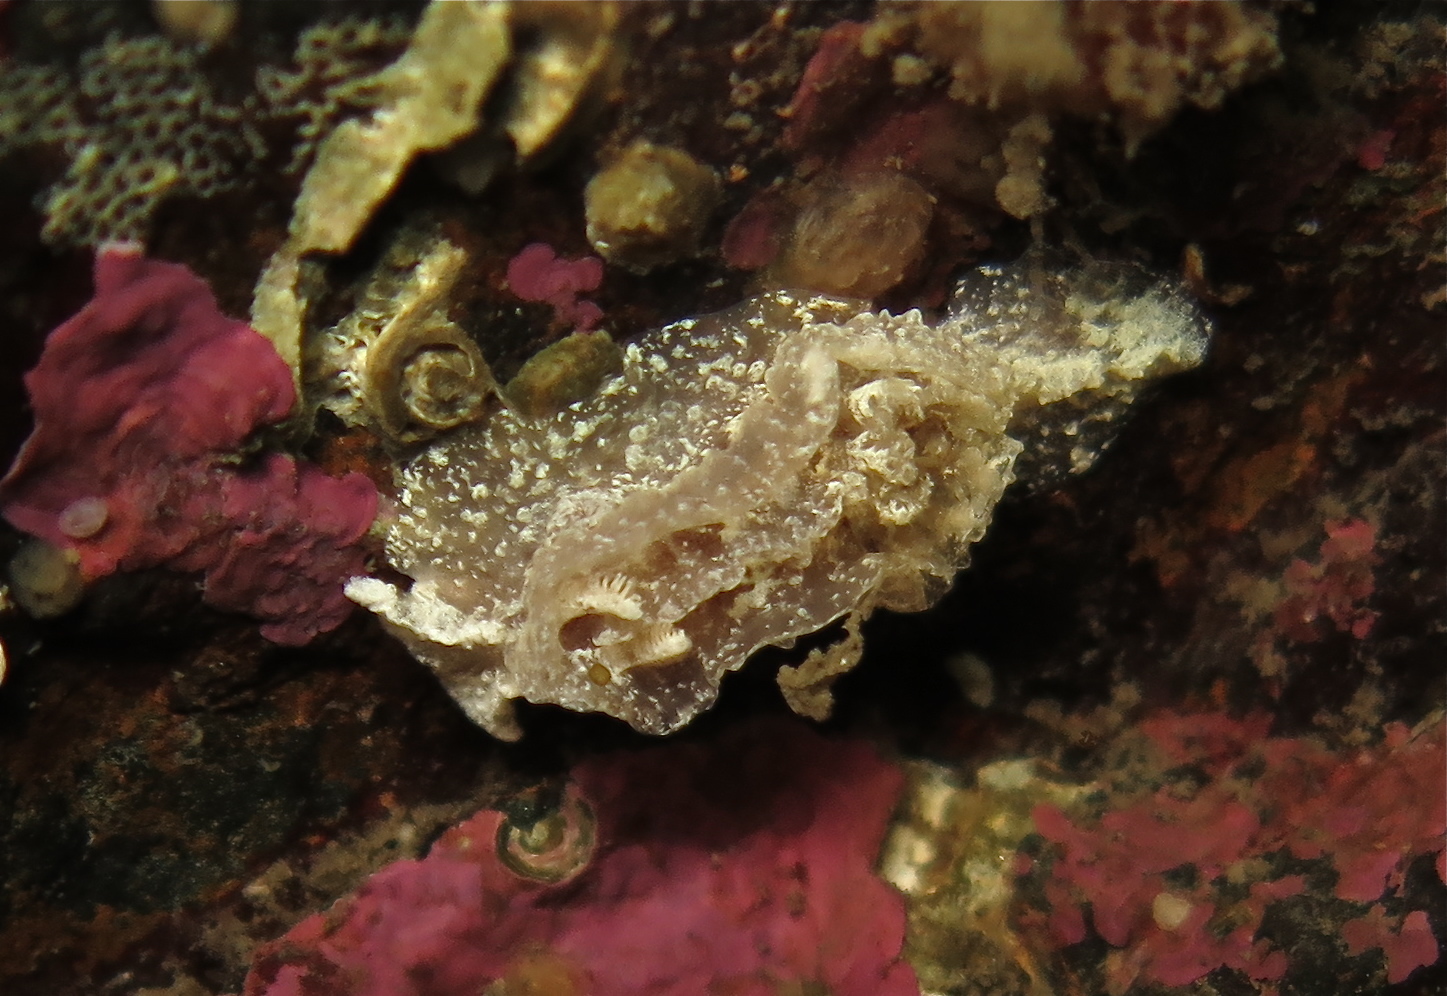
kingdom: Animalia
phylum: Mollusca
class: Gastropoda
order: Nudibranchia
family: Goniodorididae
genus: Pelagella
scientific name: Pelagella castanea
